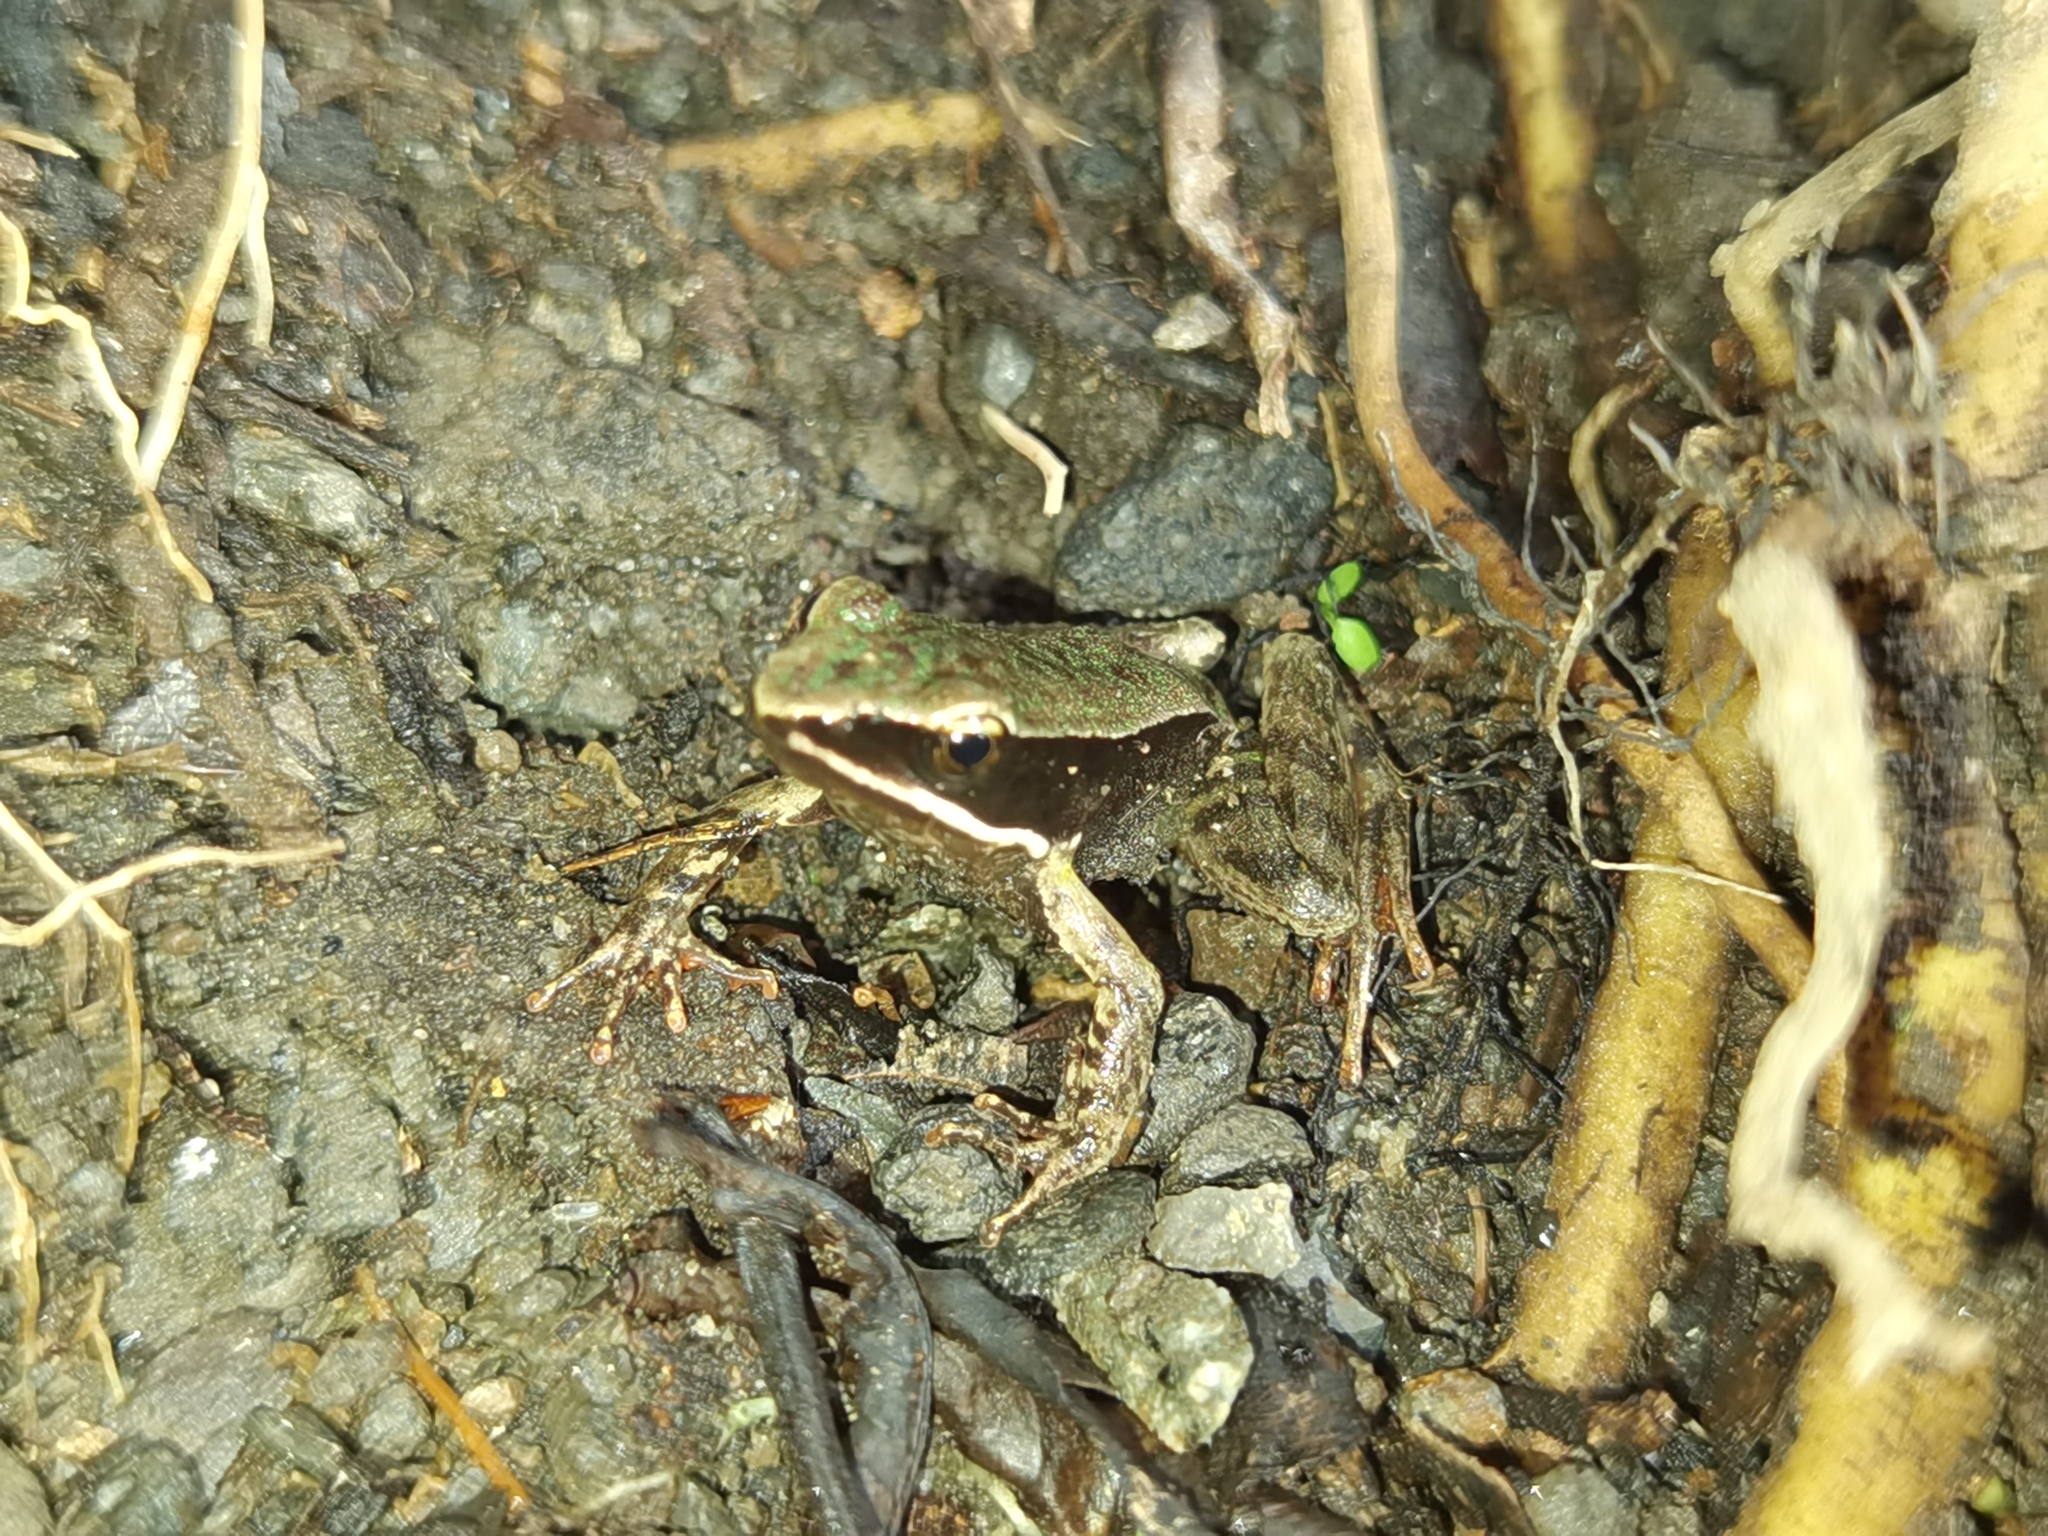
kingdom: Animalia
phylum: Chordata
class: Amphibia
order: Anura
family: Ranidae
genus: Lithobates
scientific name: Lithobates warszewitschii
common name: Warszewitsch's frog
